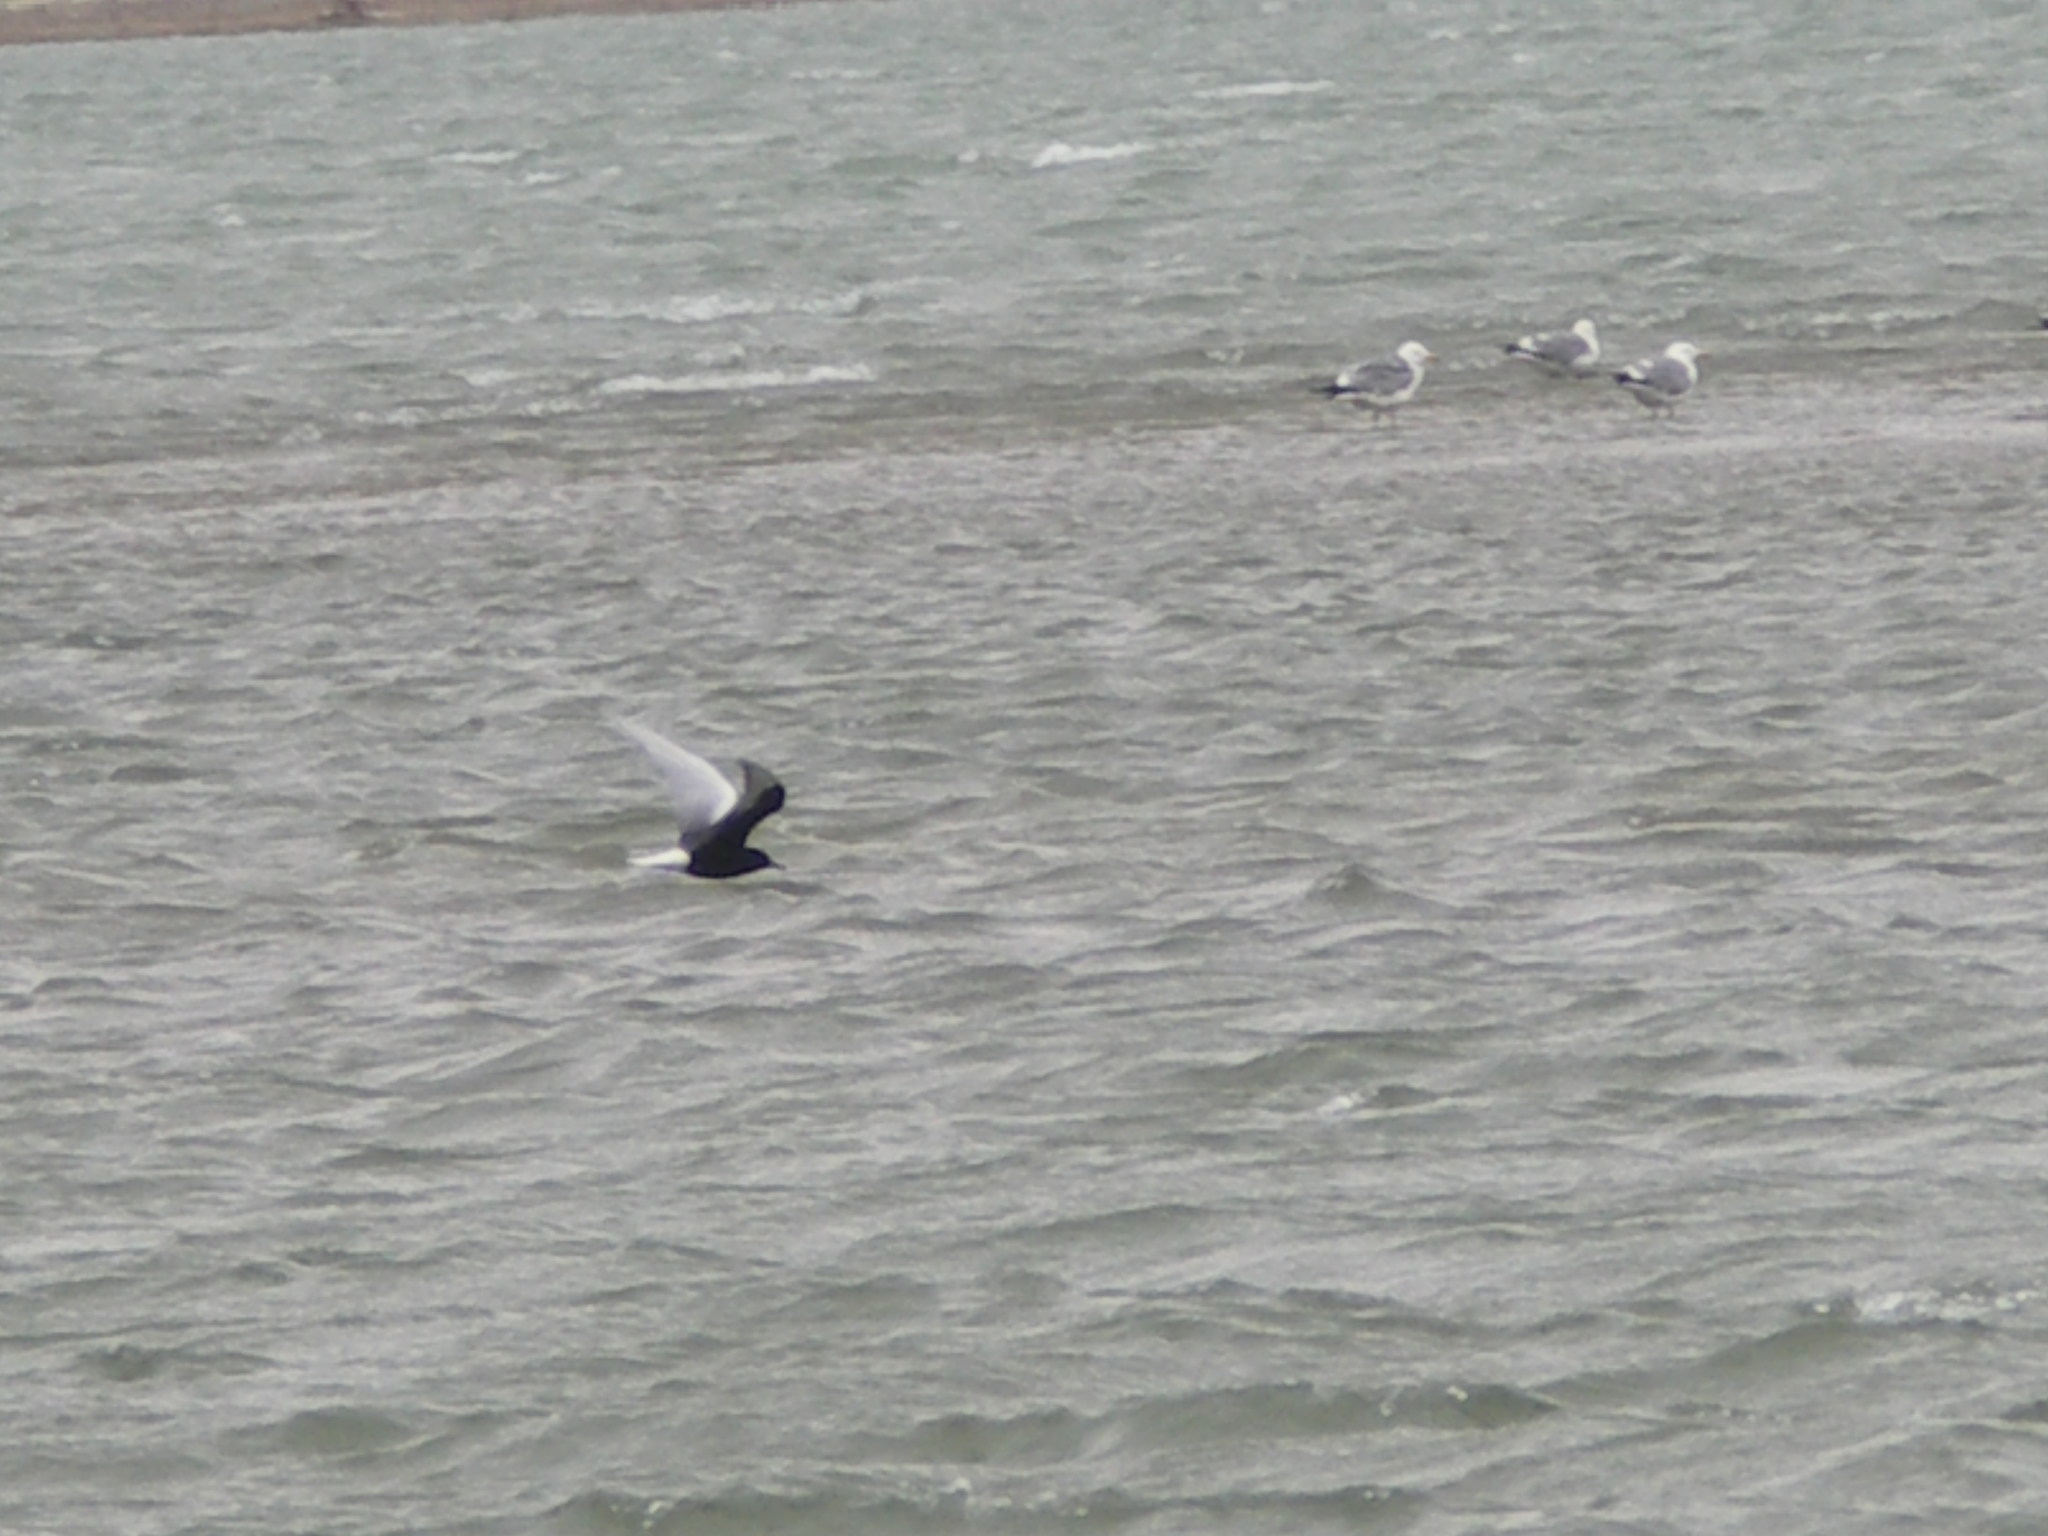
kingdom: Animalia
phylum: Chordata
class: Aves
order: Charadriiformes
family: Laridae
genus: Chlidonias
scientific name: Chlidonias leucopterus
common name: White-winged tern
